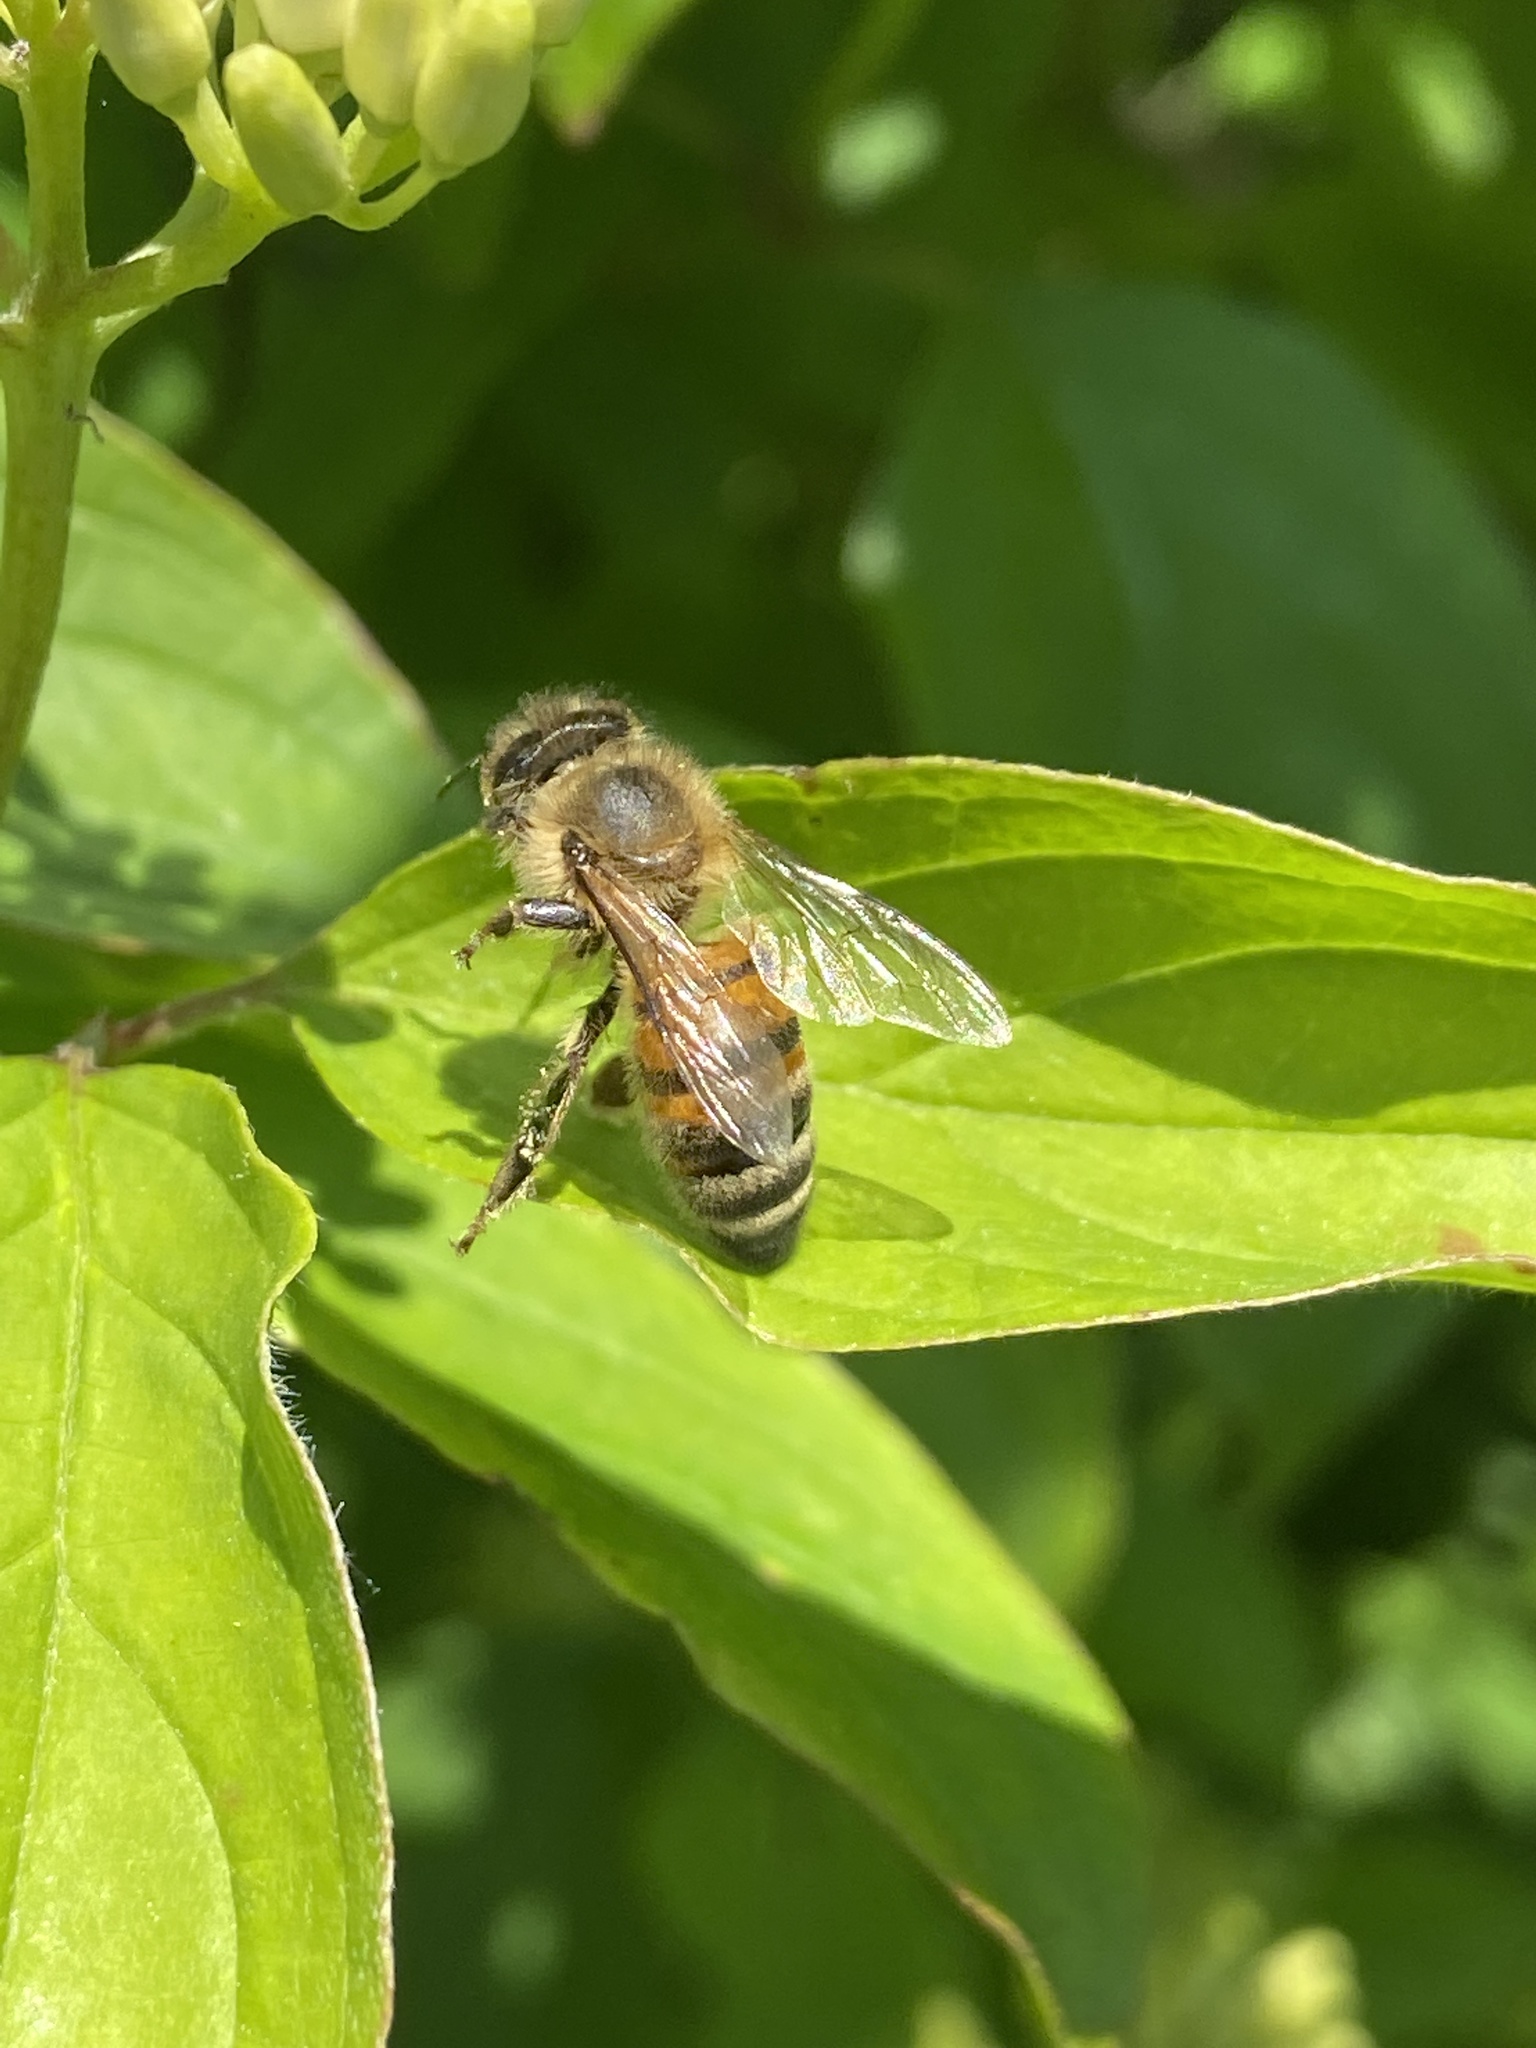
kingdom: Animalia
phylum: Arthropoda
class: Insecta
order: Hymenoptera
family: Apidae
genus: Apis
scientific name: Apis mellifera
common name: Honey bee
